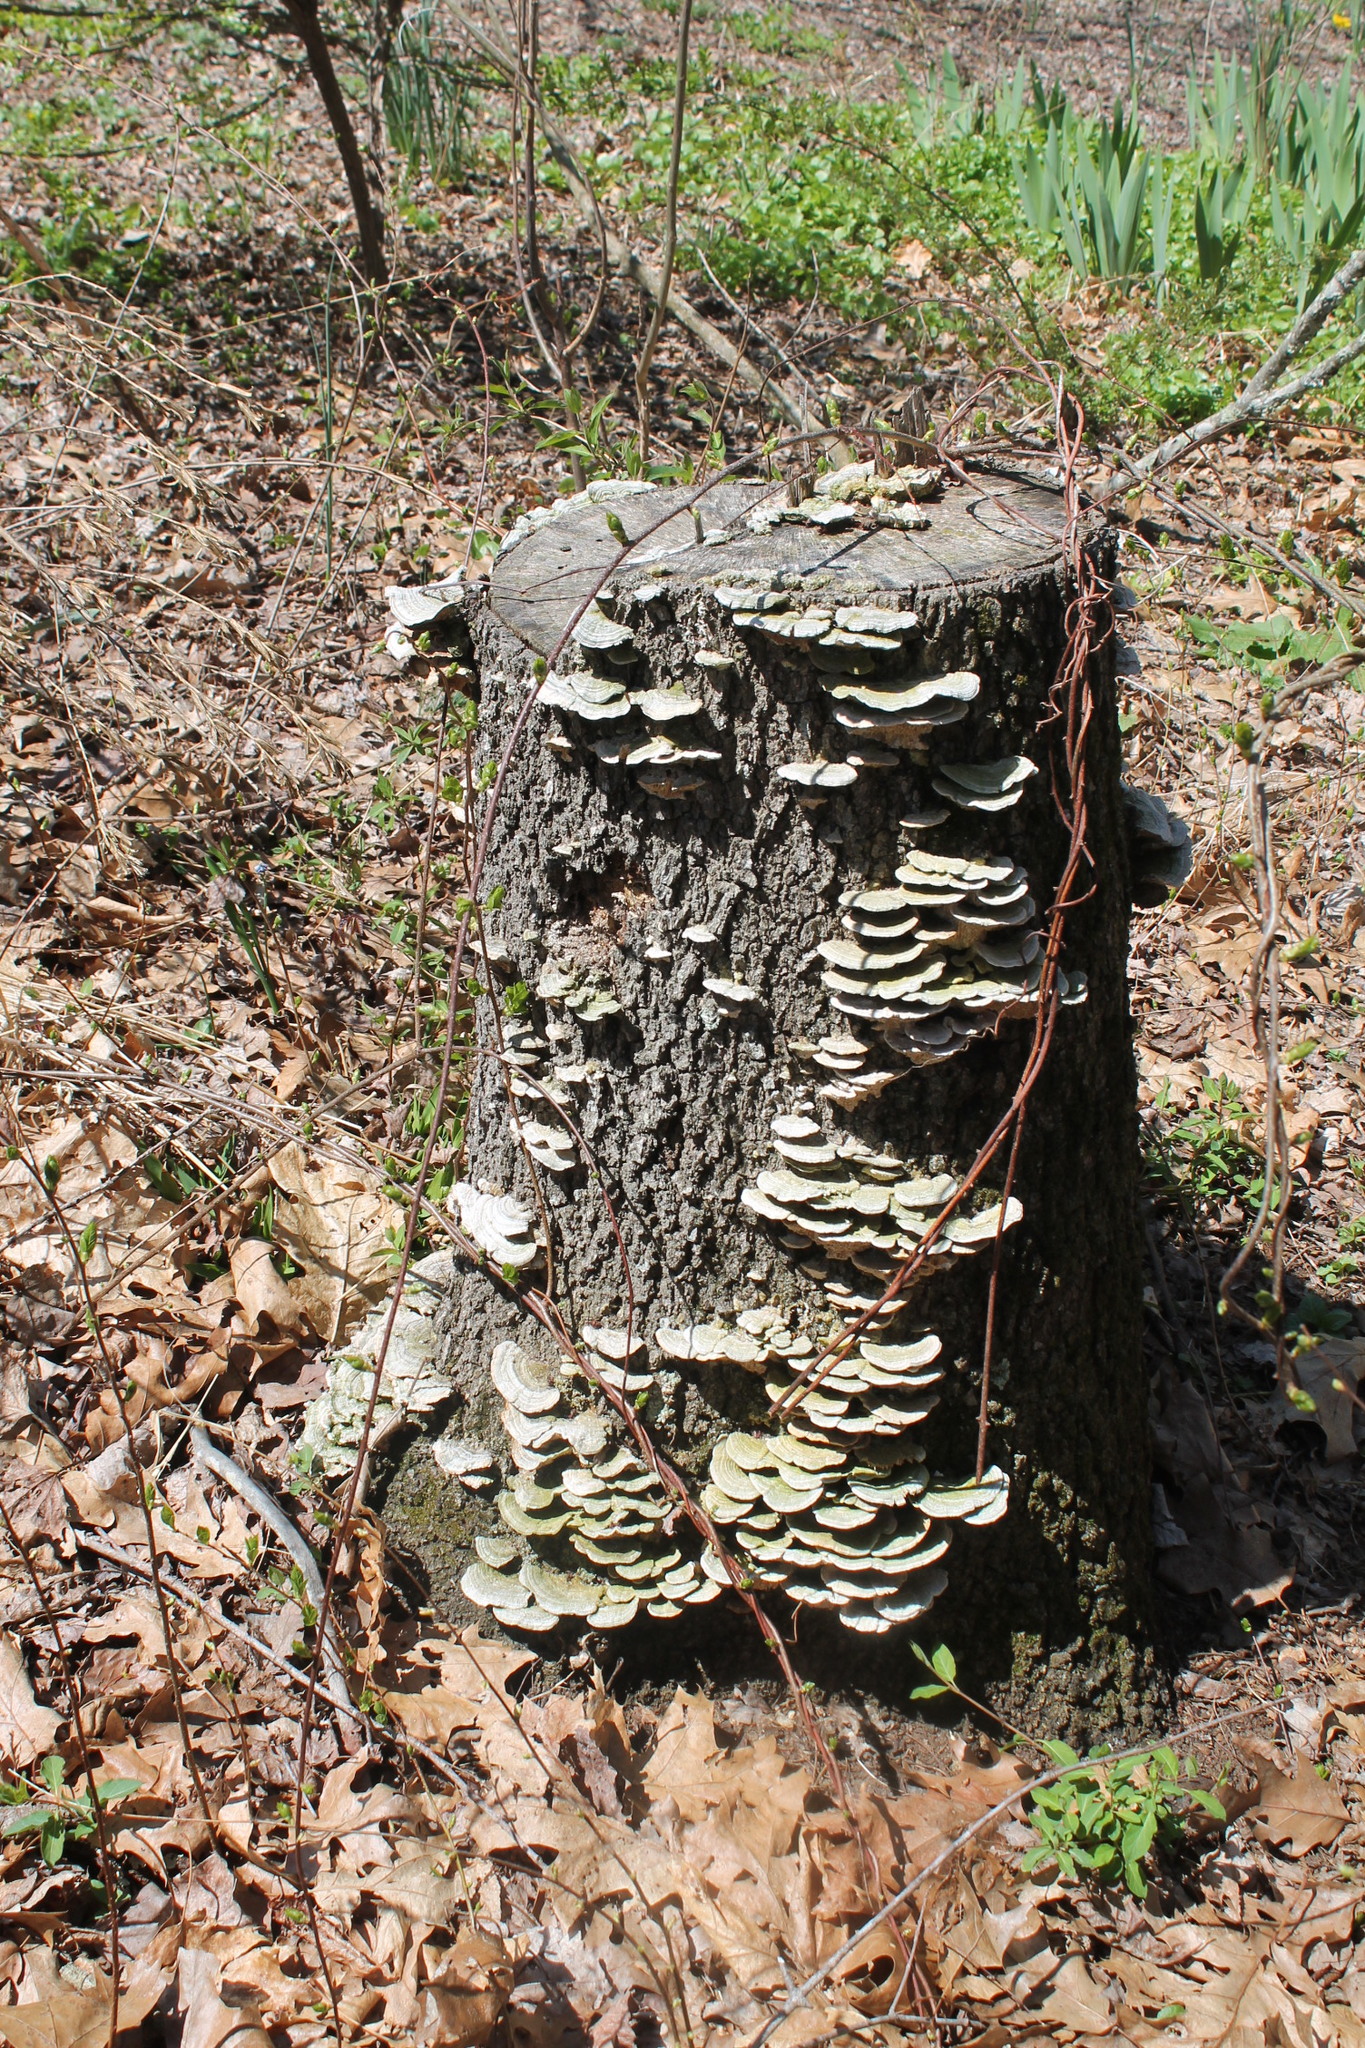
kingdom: Fungi
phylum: Basidiomycota
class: Agaricomycetes
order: Polyporales
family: Polyporaceae
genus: Lenzites
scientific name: Lenzites betulinus
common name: Birch mazegill
